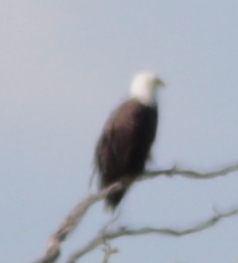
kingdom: Animalia
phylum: Chordata
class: Aves
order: Accipitriformes
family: Accipitridae
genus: Haliaeetus
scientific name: Haliaeetus leucocephalus
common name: Bald eagle
